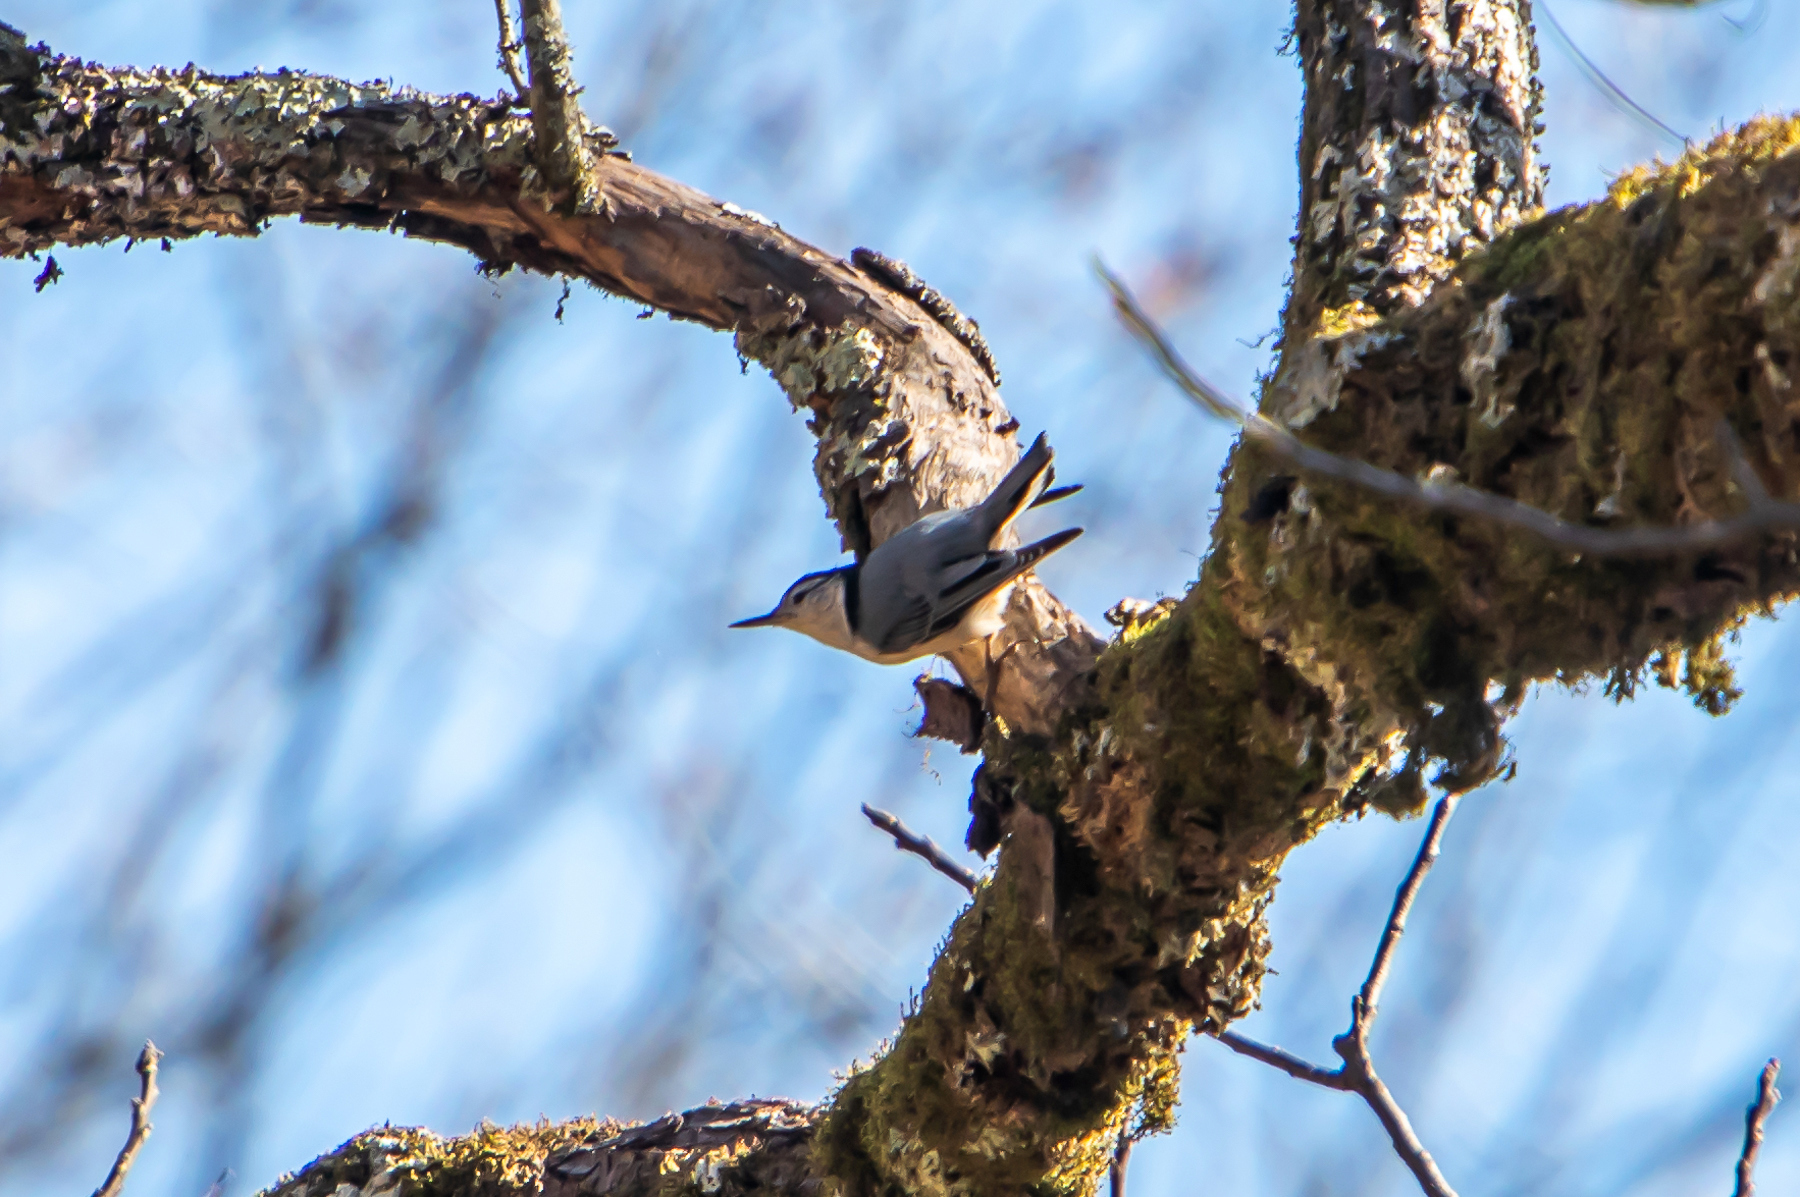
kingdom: Animalia
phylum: Chordata
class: Aves
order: Passeriformes
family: Sittidae
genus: Sitta
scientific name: Sitta carolinensis
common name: White-breasted nuthatch
